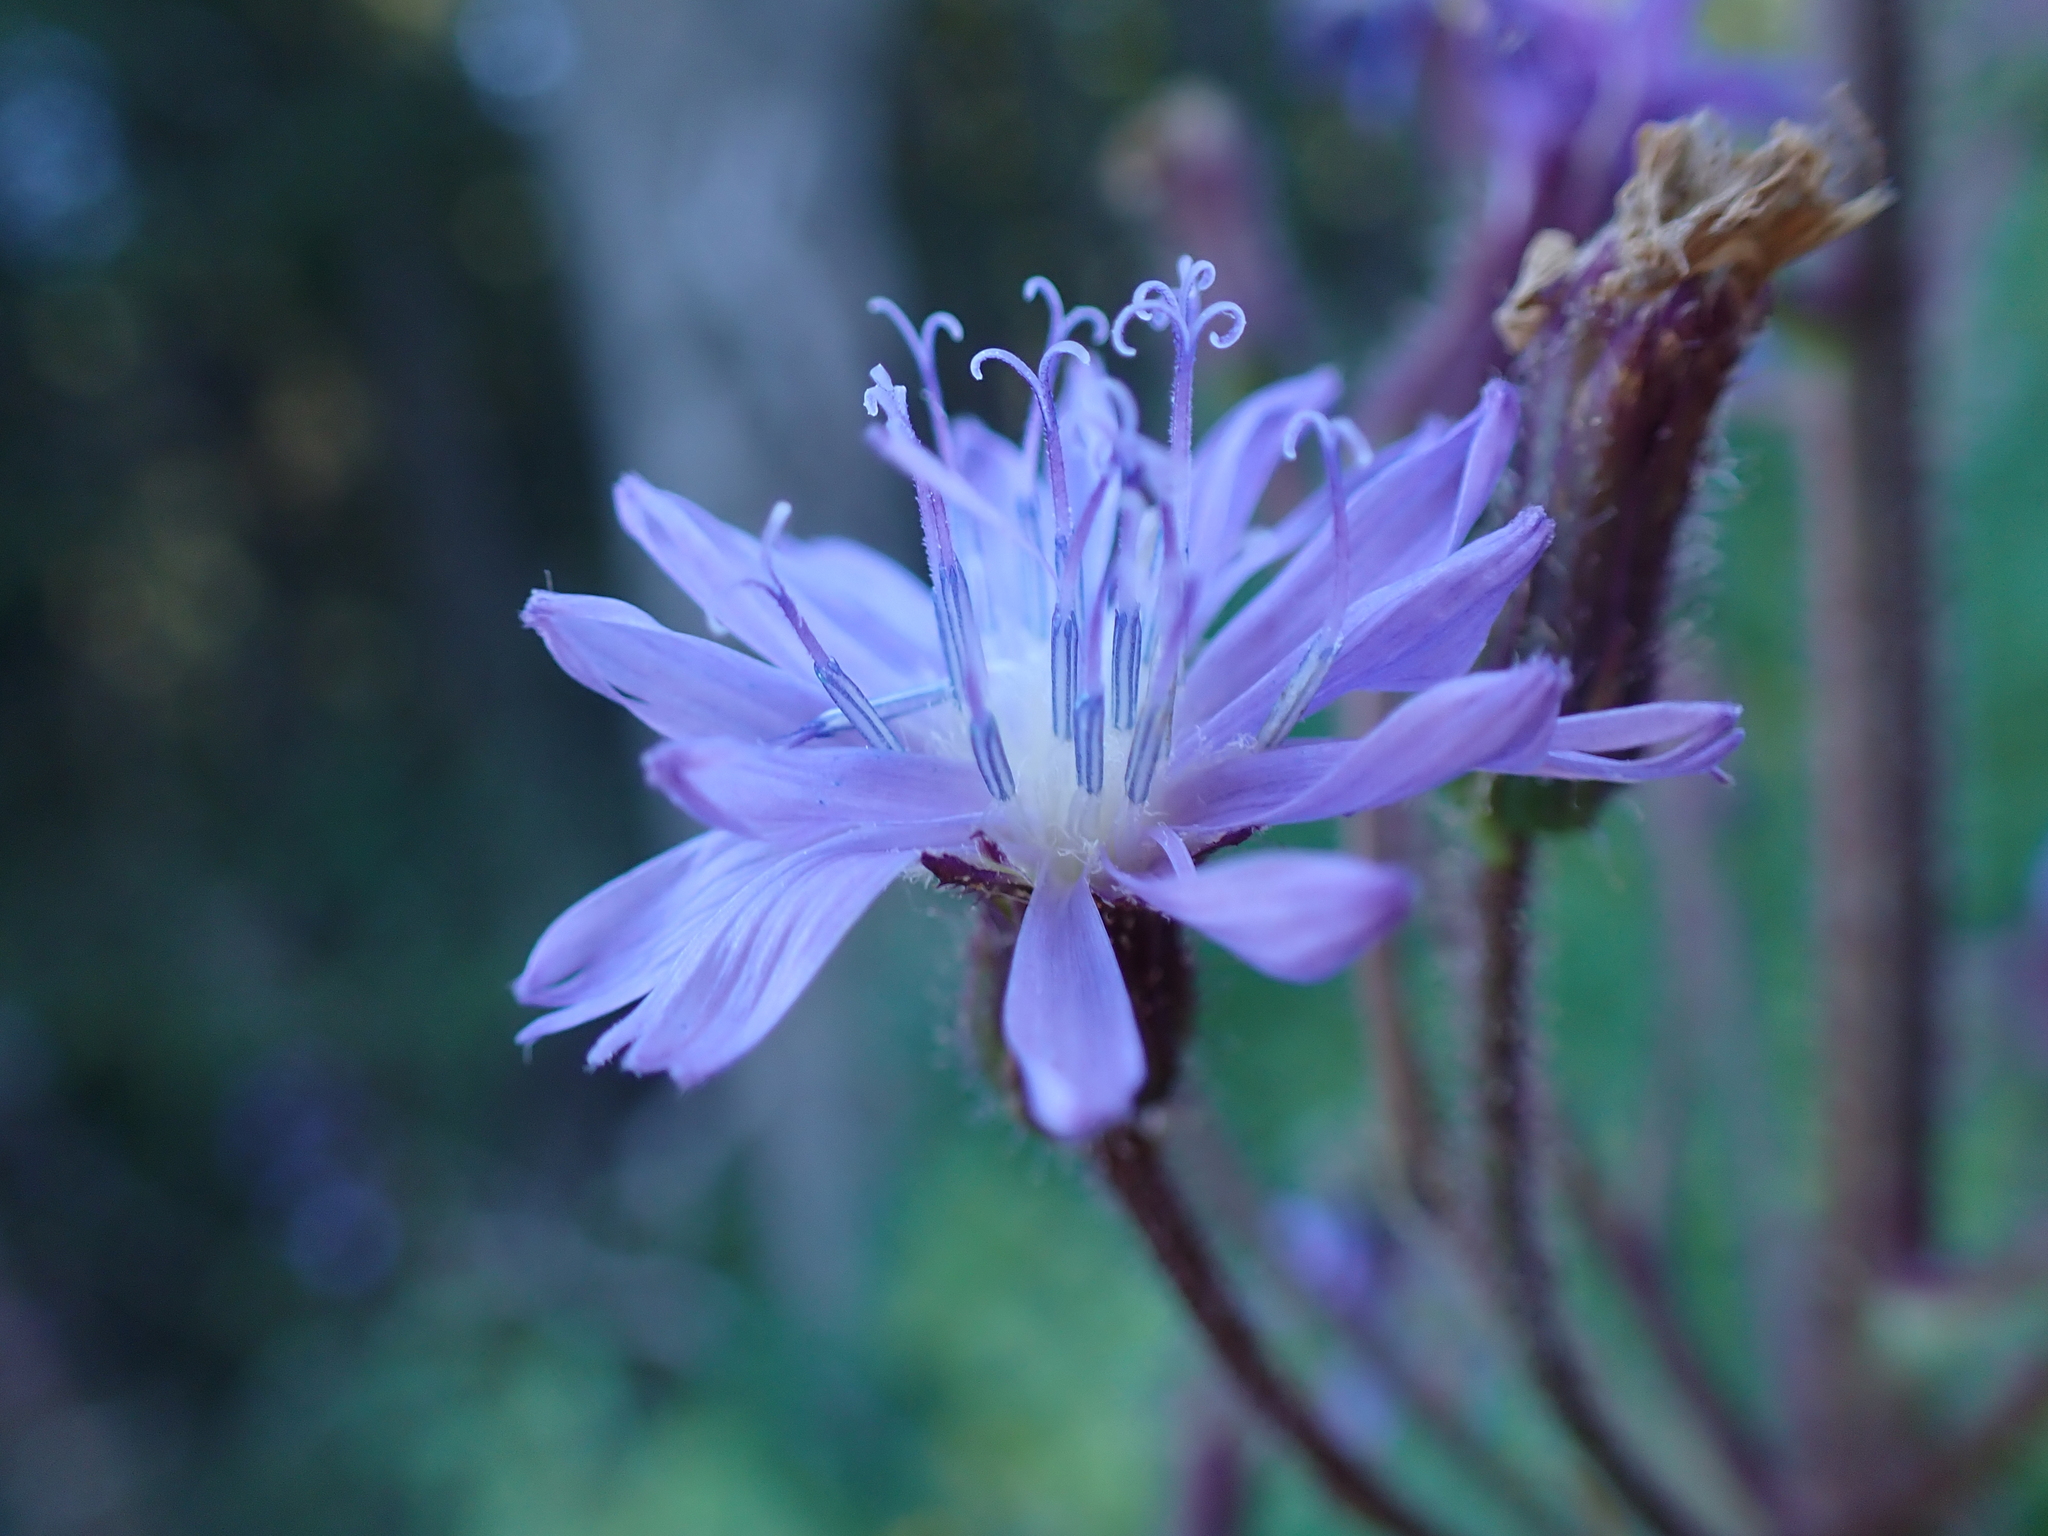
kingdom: Plantae
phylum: Tracheophyta
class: Magnoliopsida
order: Asterales
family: Asteraceae
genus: Cicerbita
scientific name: Cicerbita alpina
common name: Alpine blue-sow-thistle
